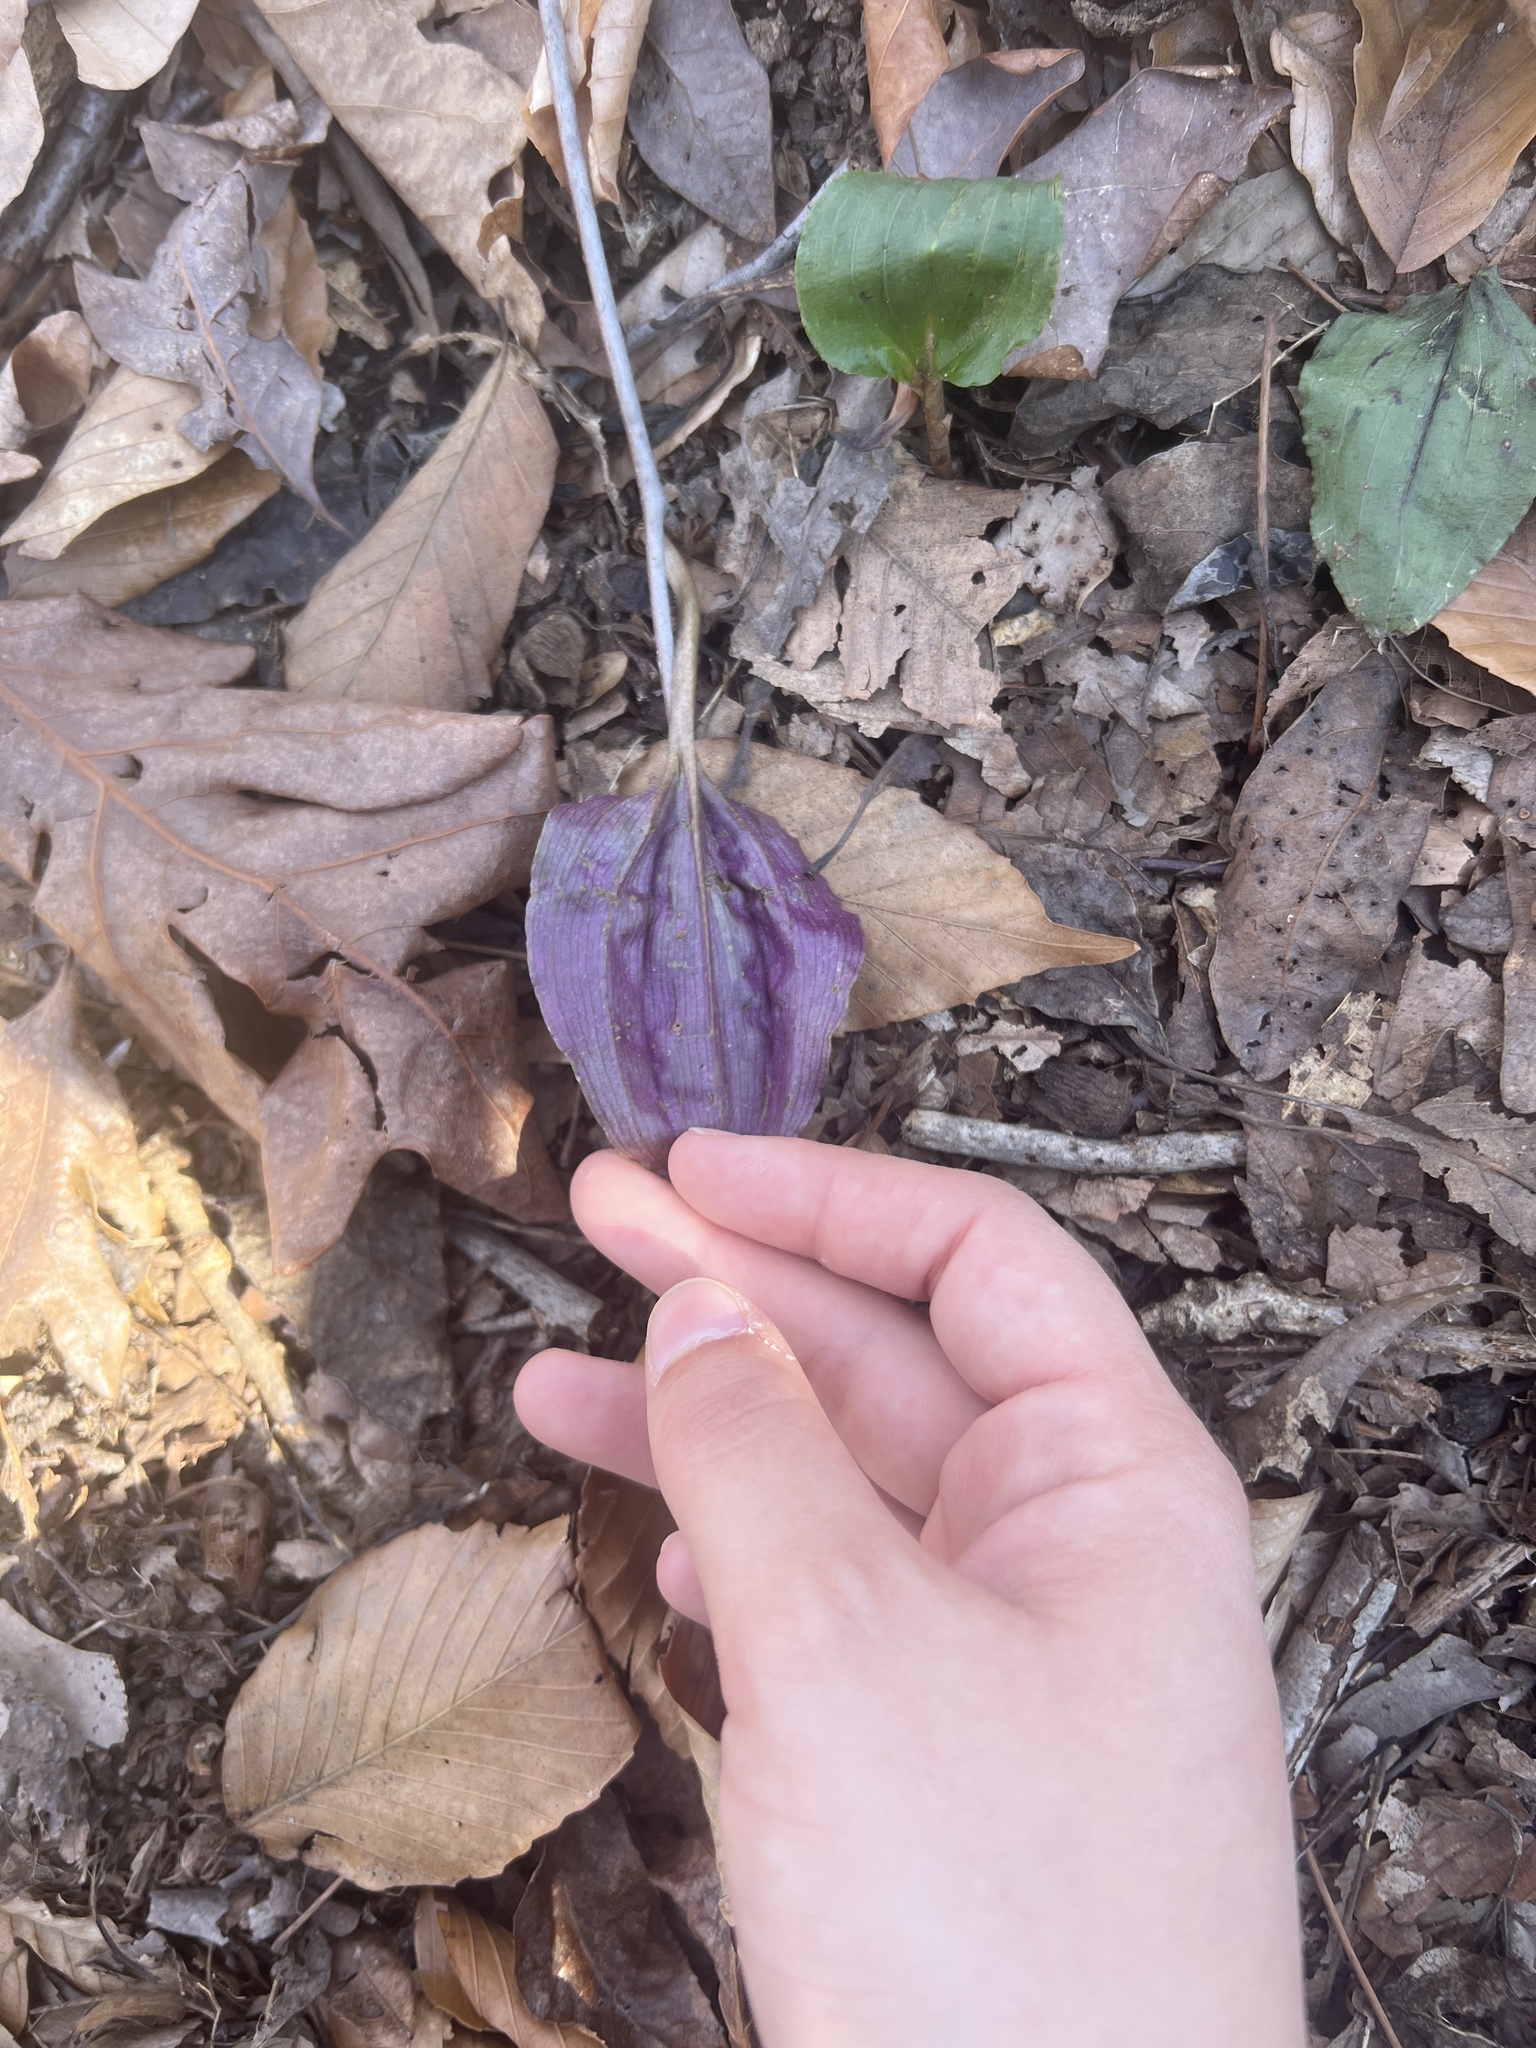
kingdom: Plantae
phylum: Tracheophyta
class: Liliopsida
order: Asparagales
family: Orchidaceae
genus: Tipularia
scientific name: Tipularia discolor
